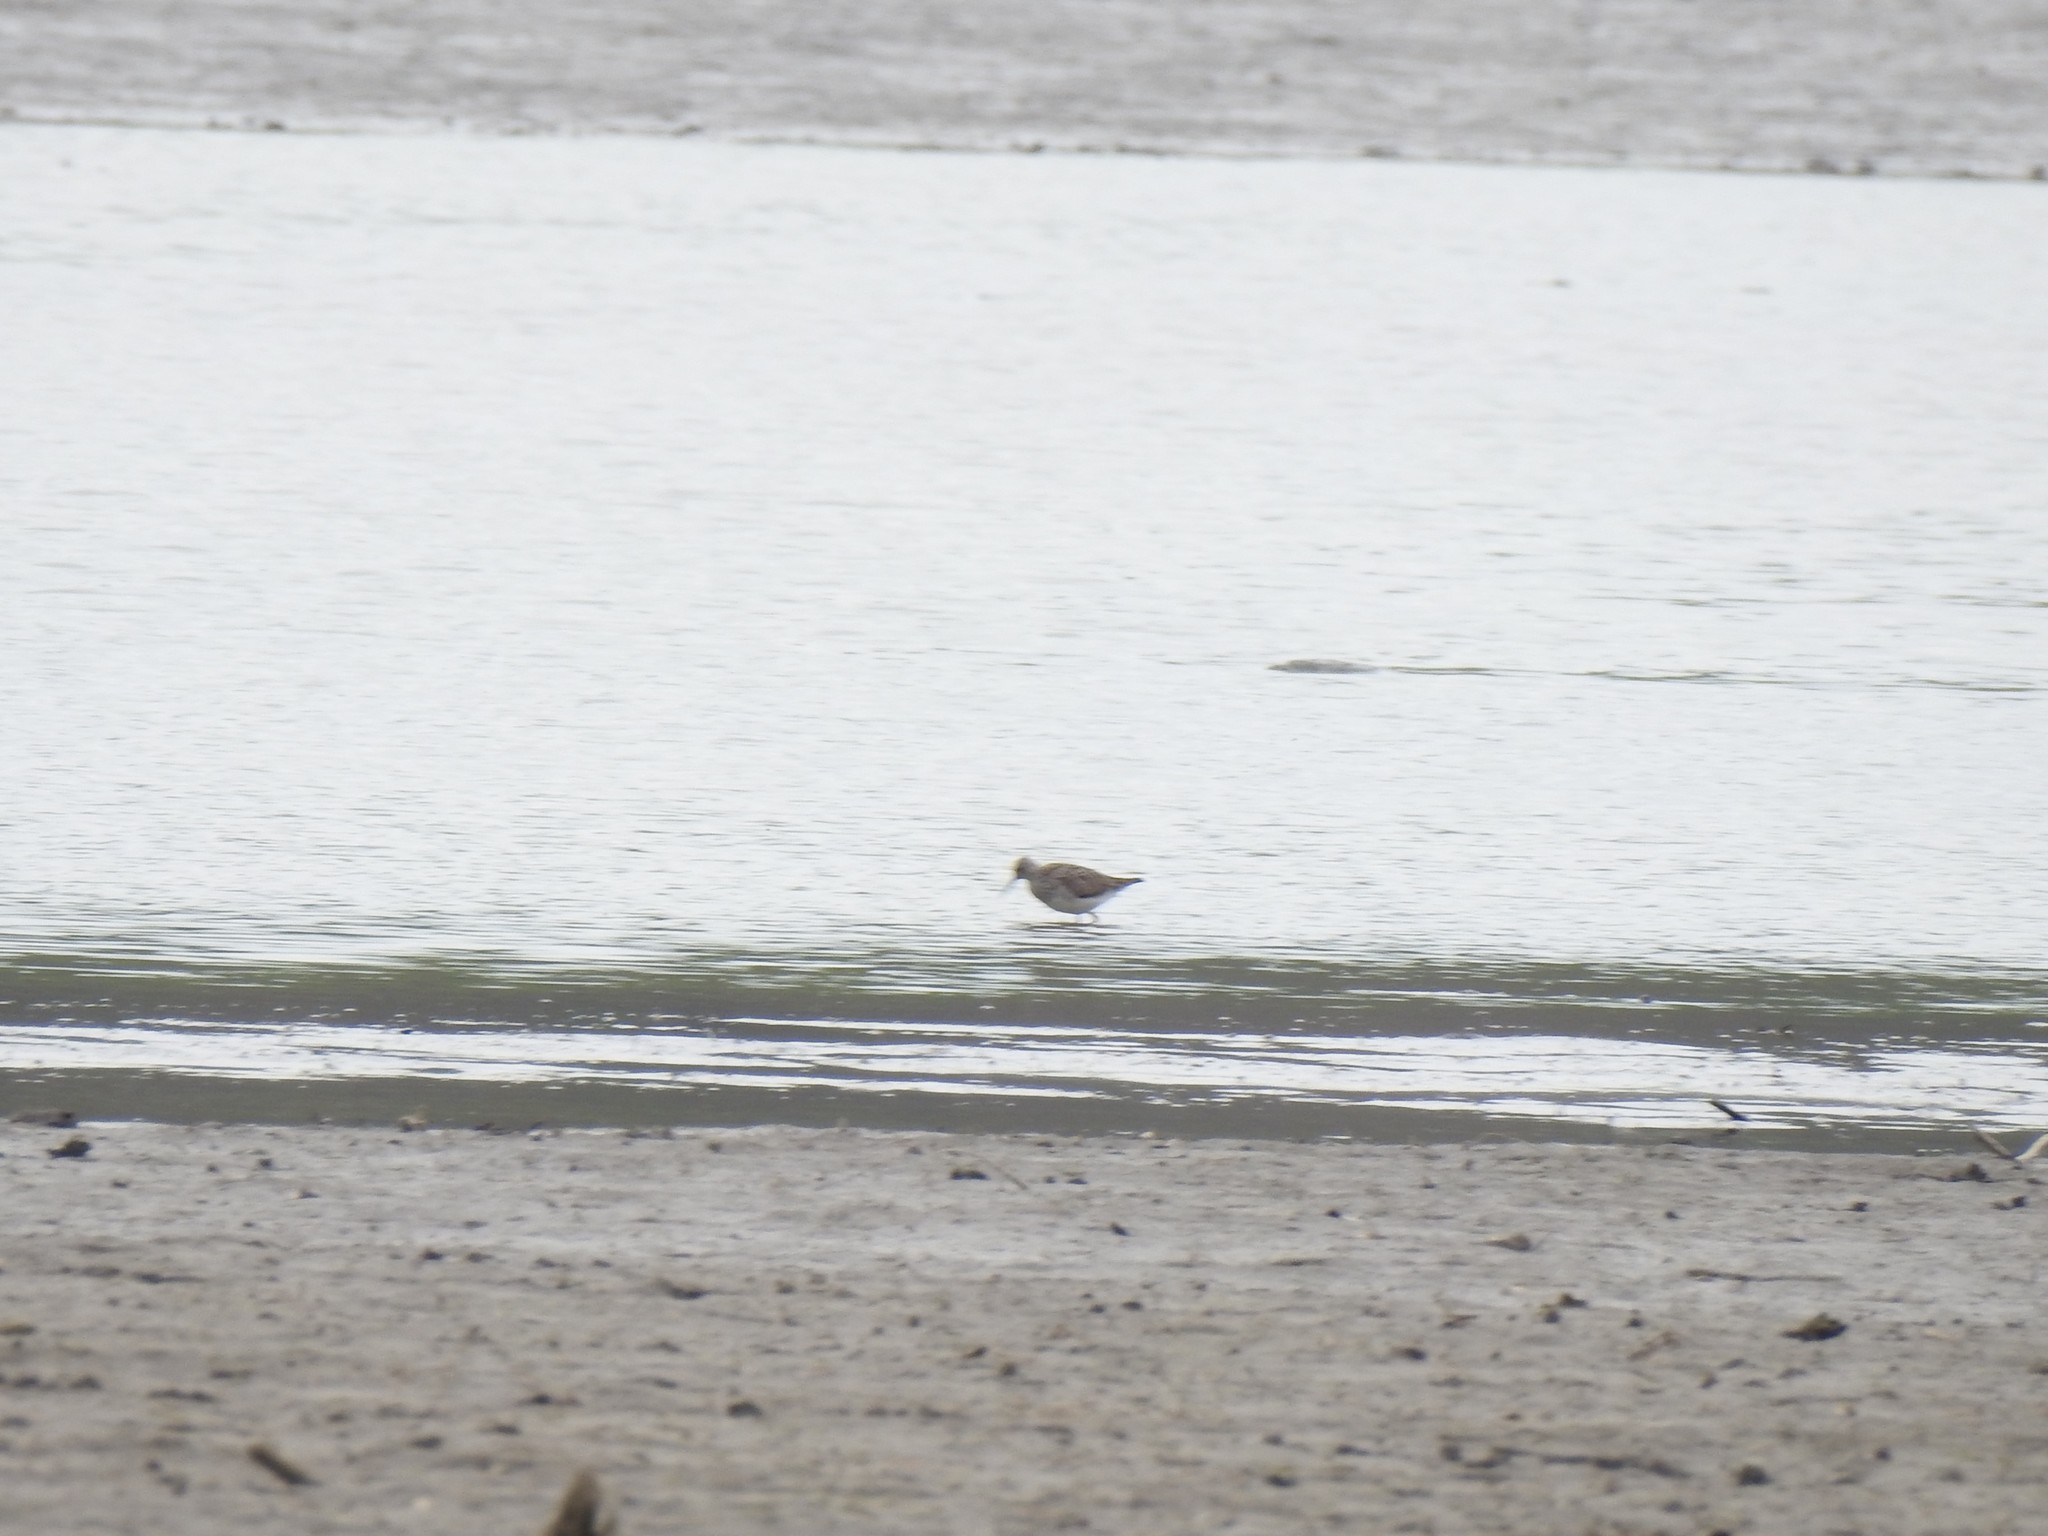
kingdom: Animalia
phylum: Chordata
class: Aves
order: Charadriiformes
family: Scolopacidae
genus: Tringa
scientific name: Tringa flavipes
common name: Lesser yellowlegs
